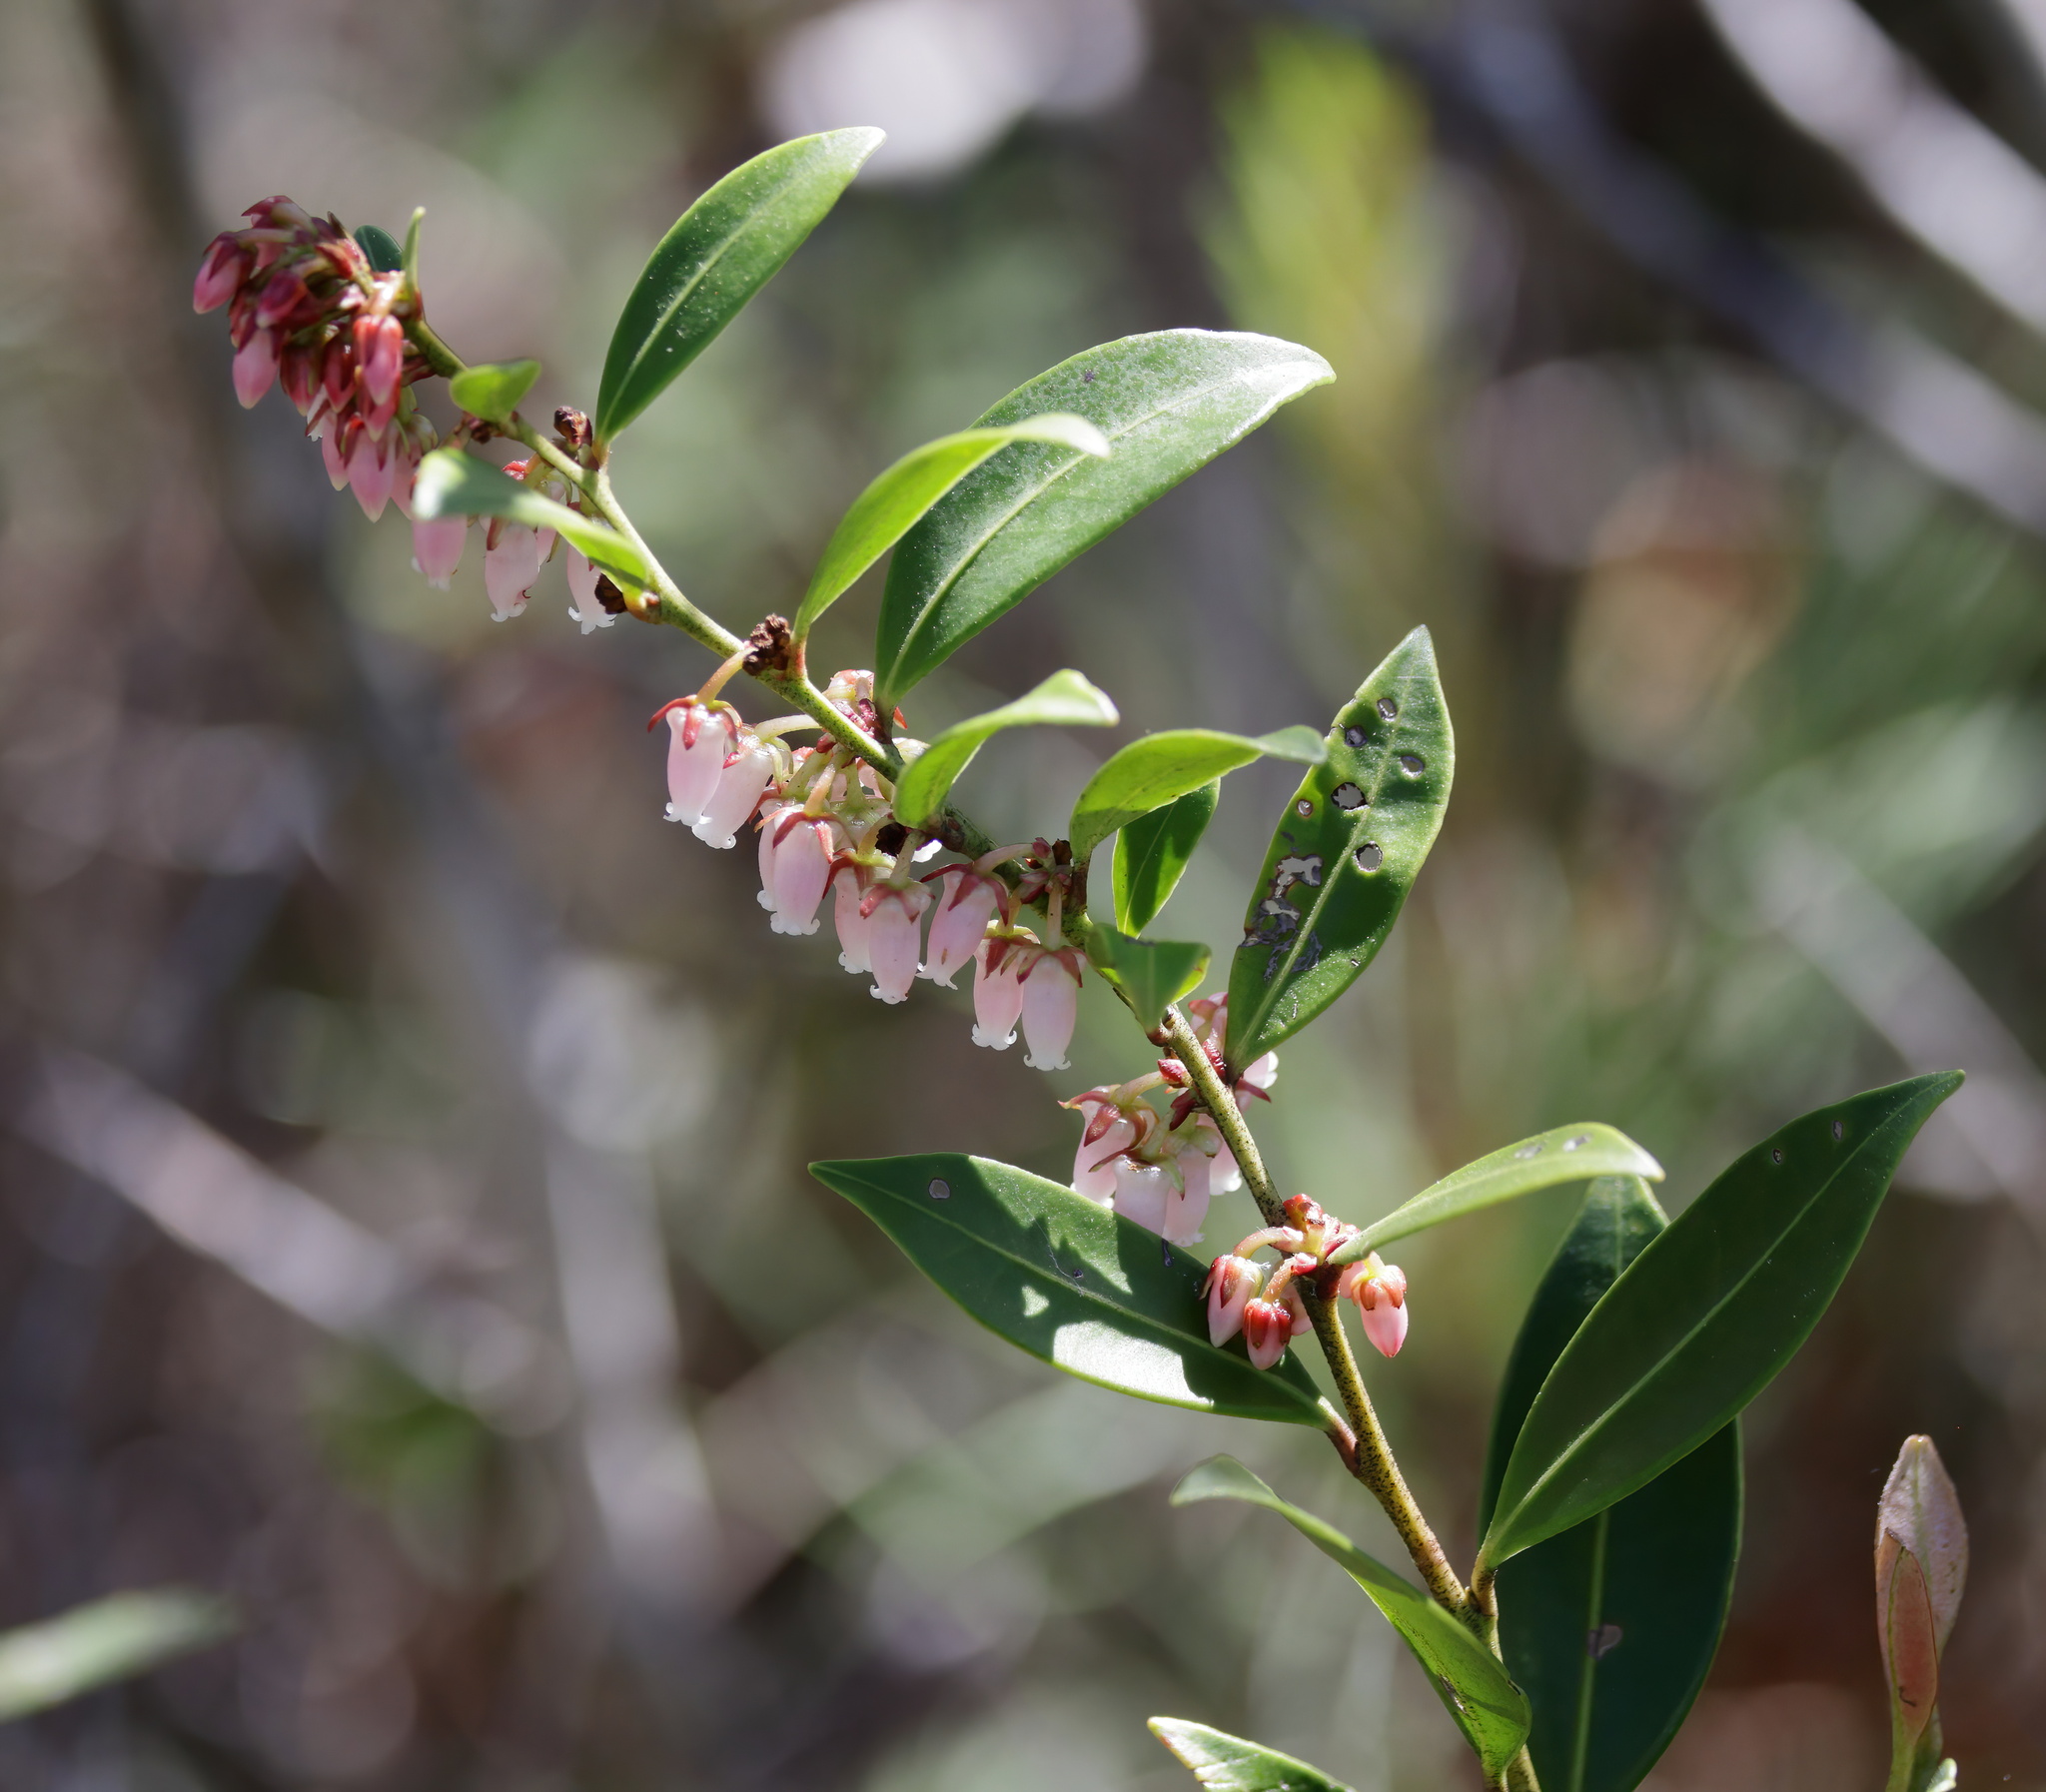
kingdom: Plantae
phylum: Tracheophyta
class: Magnoliopsida
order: Ericales
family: Ericaceae
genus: Lyonia
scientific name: Lyonia lucida
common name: Fetterbush
